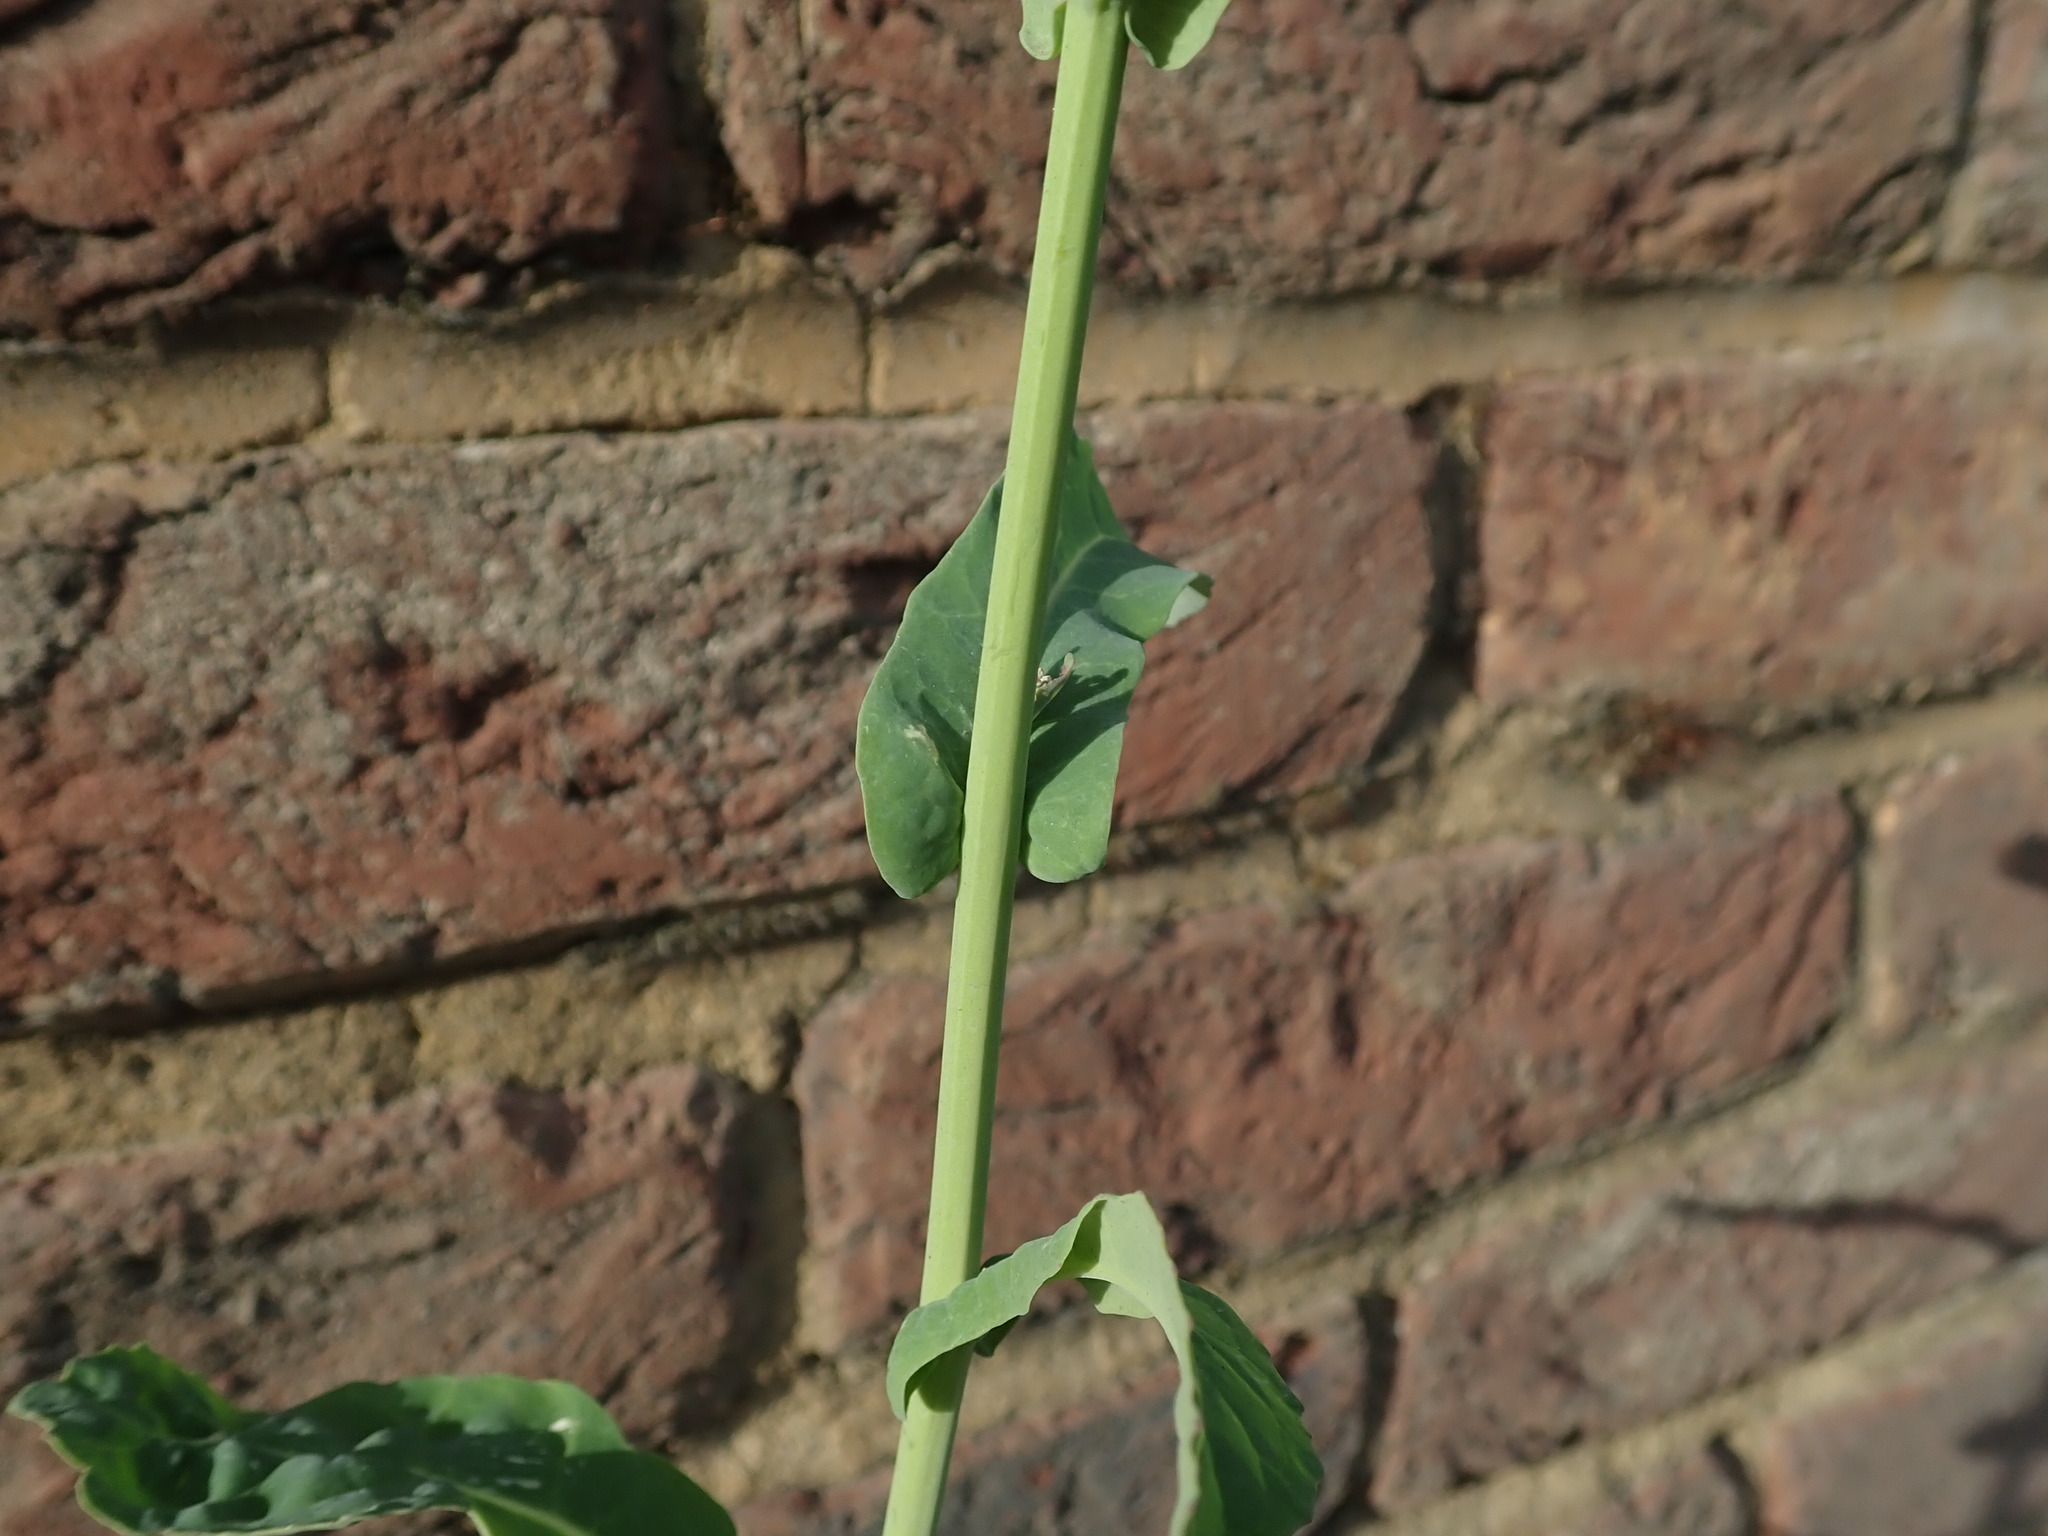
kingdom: Plantae
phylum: Tracheophyta
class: Magnoliopsida
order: Brassicales
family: Brassicaceae
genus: Brassica
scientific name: Brassica napus
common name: Rape
